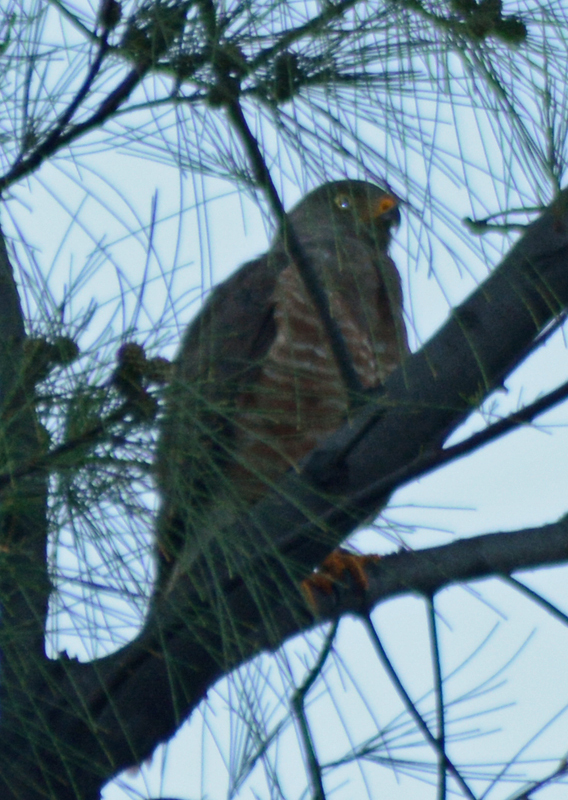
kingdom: Animalia
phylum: Chordata
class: Aves
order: Accipitriformes
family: Accipitridae
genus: Rupornis
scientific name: Rupornis magnirostris
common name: Roadside hawk
